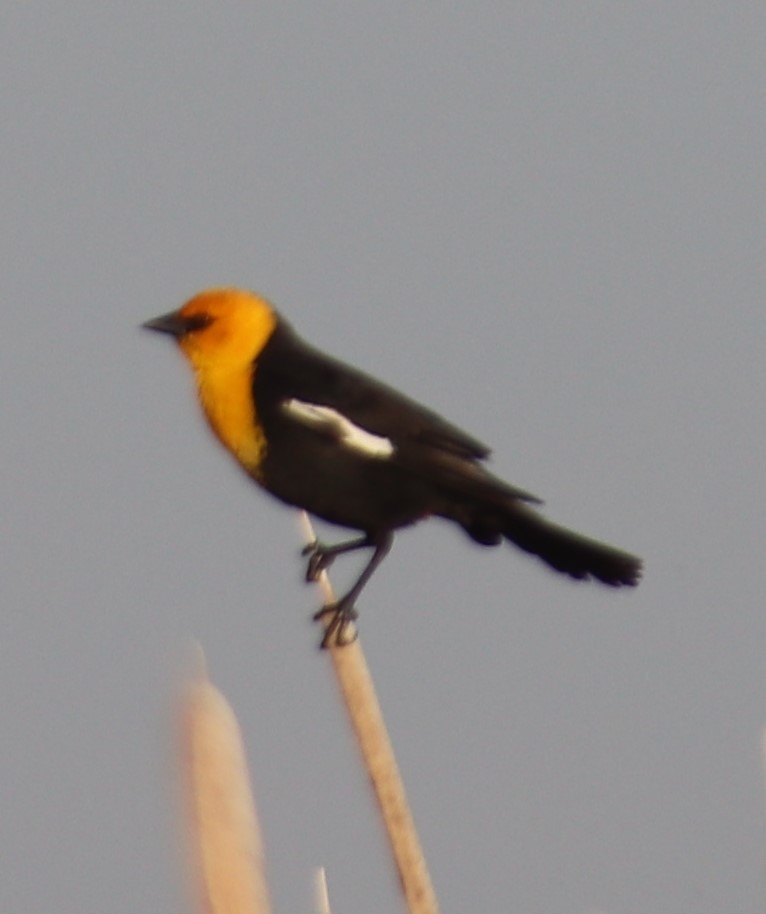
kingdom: Animalia
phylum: Chordata
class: Aves
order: Passeriformes
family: Icteridae
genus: Xanthocephalus
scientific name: Xanthocephalus xanthocephalus
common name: Yellow-headed blackbird
